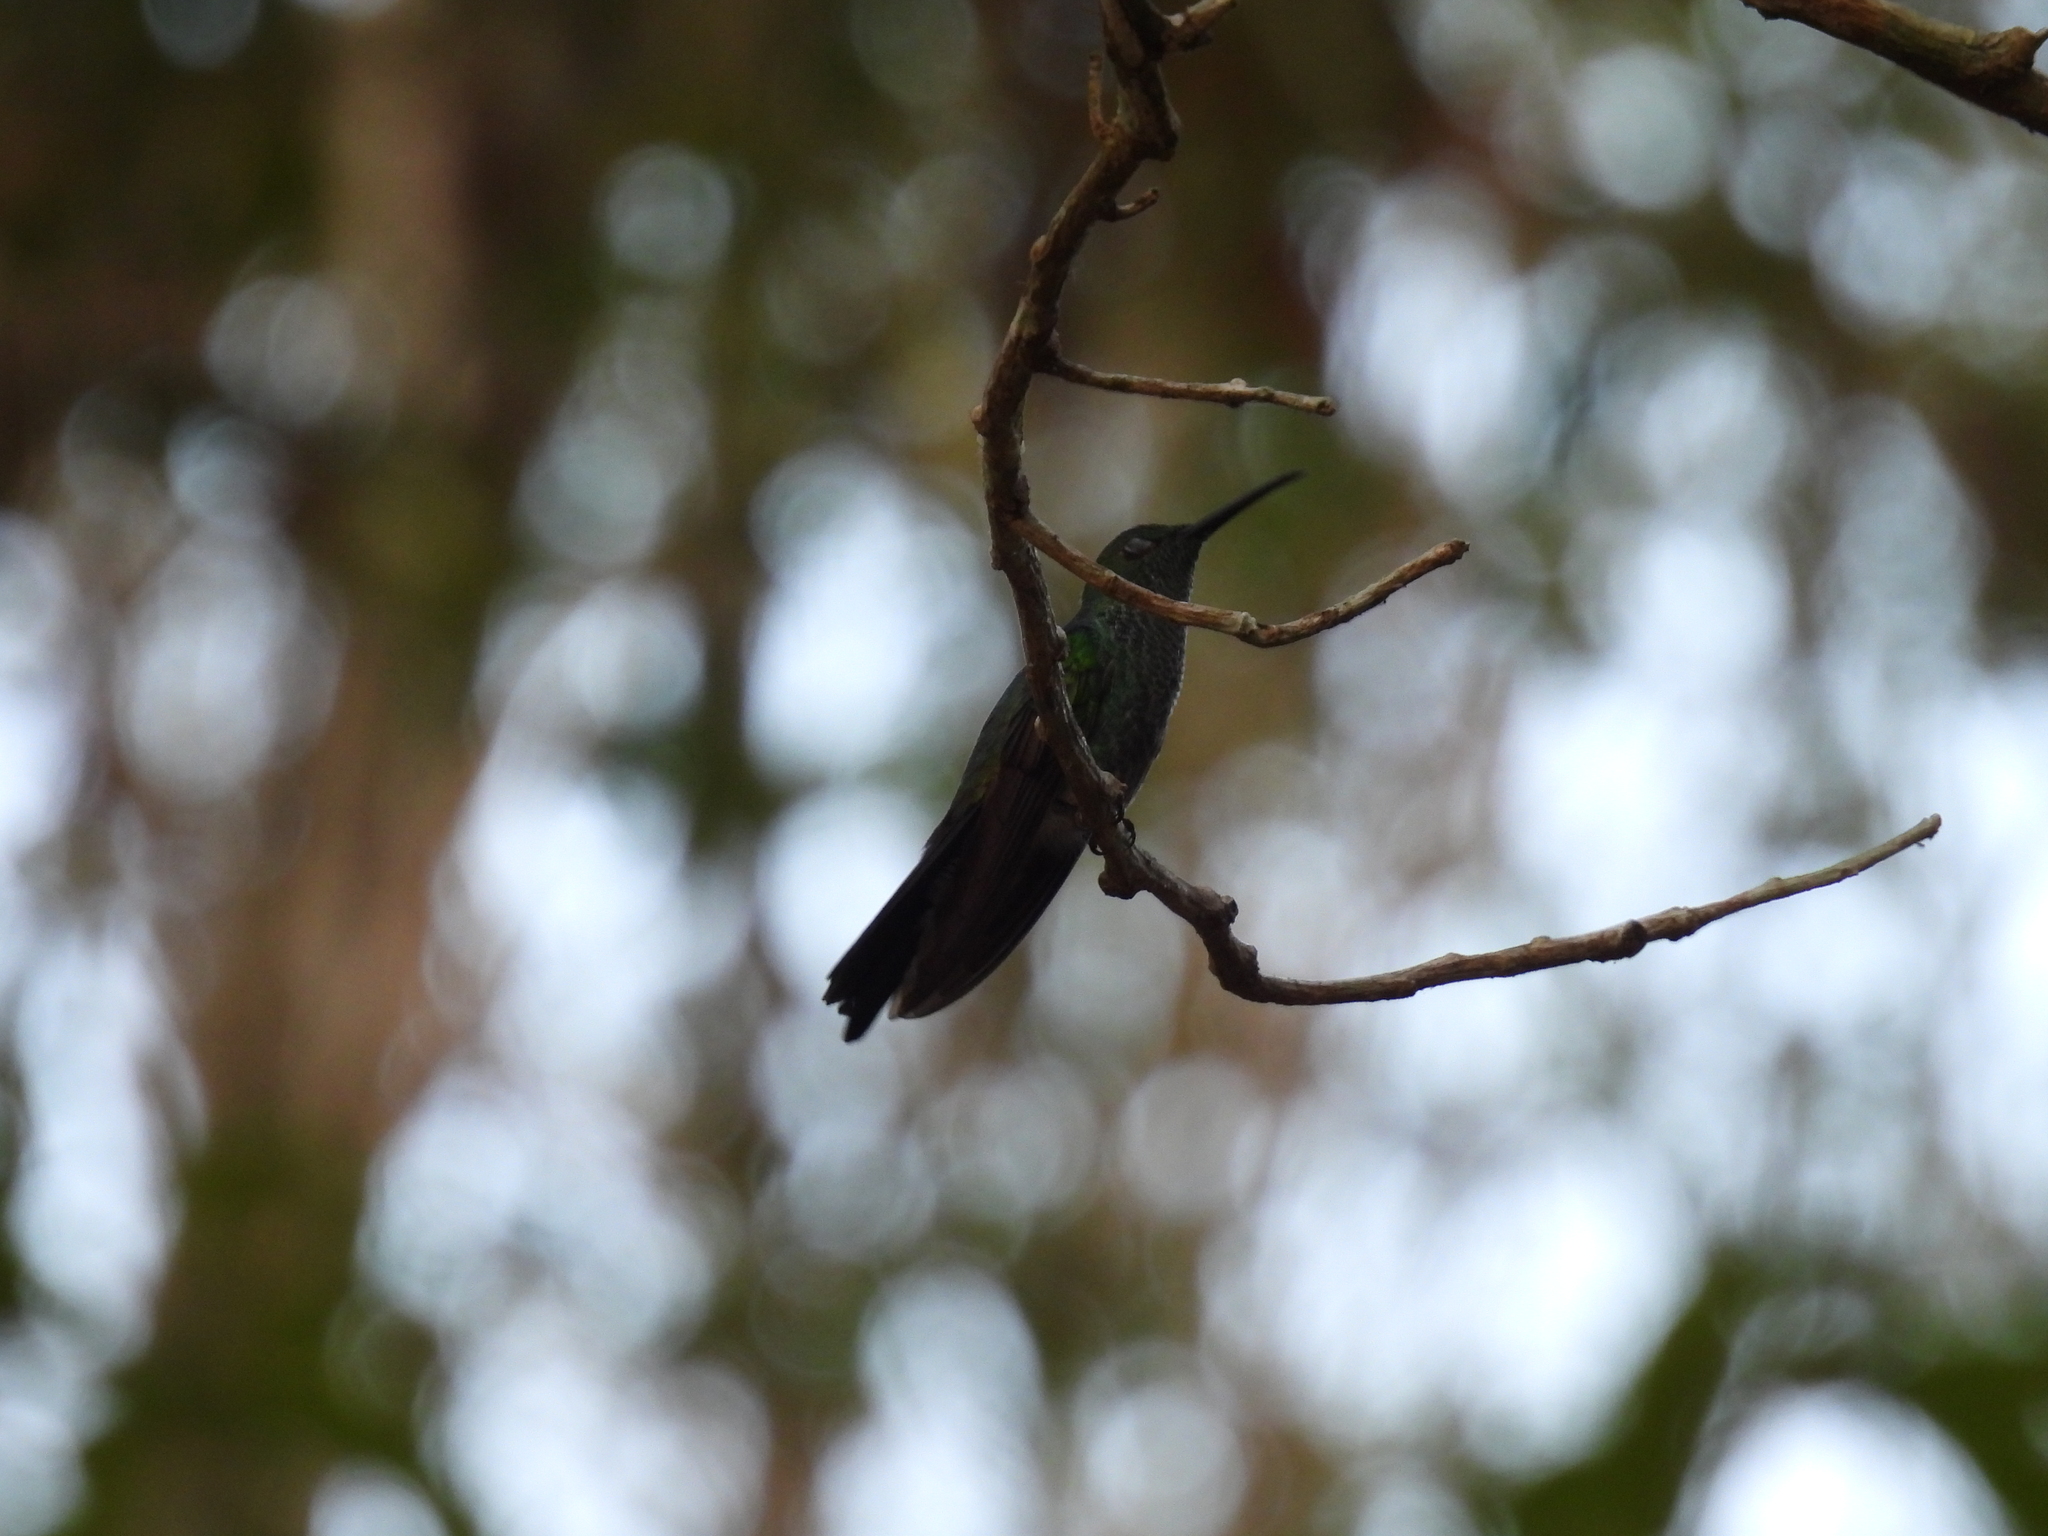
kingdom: Animalia
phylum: Chordata
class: Aves
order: Apodiformes
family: Trochilidae
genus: Chalybura
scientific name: Chalybura buffonii
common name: White-vented plumeleteer
